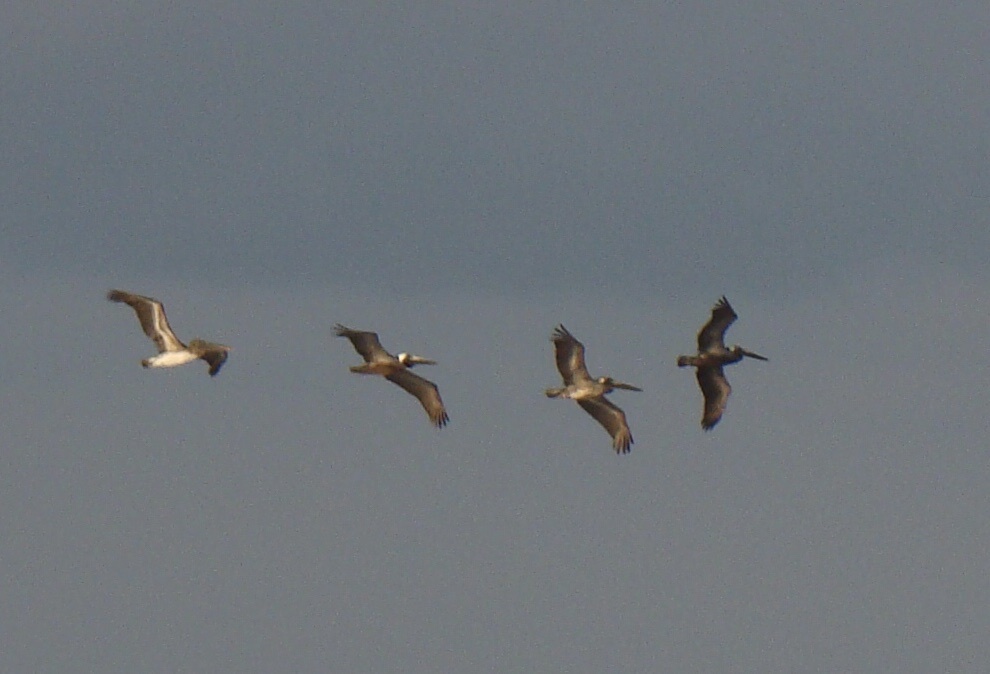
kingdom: Animalia
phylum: Chordata
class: Aves
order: Pelecaniformes
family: Pelecanidae
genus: Pelecanus
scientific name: Pelecanus occidentalis
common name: Brown pelican
